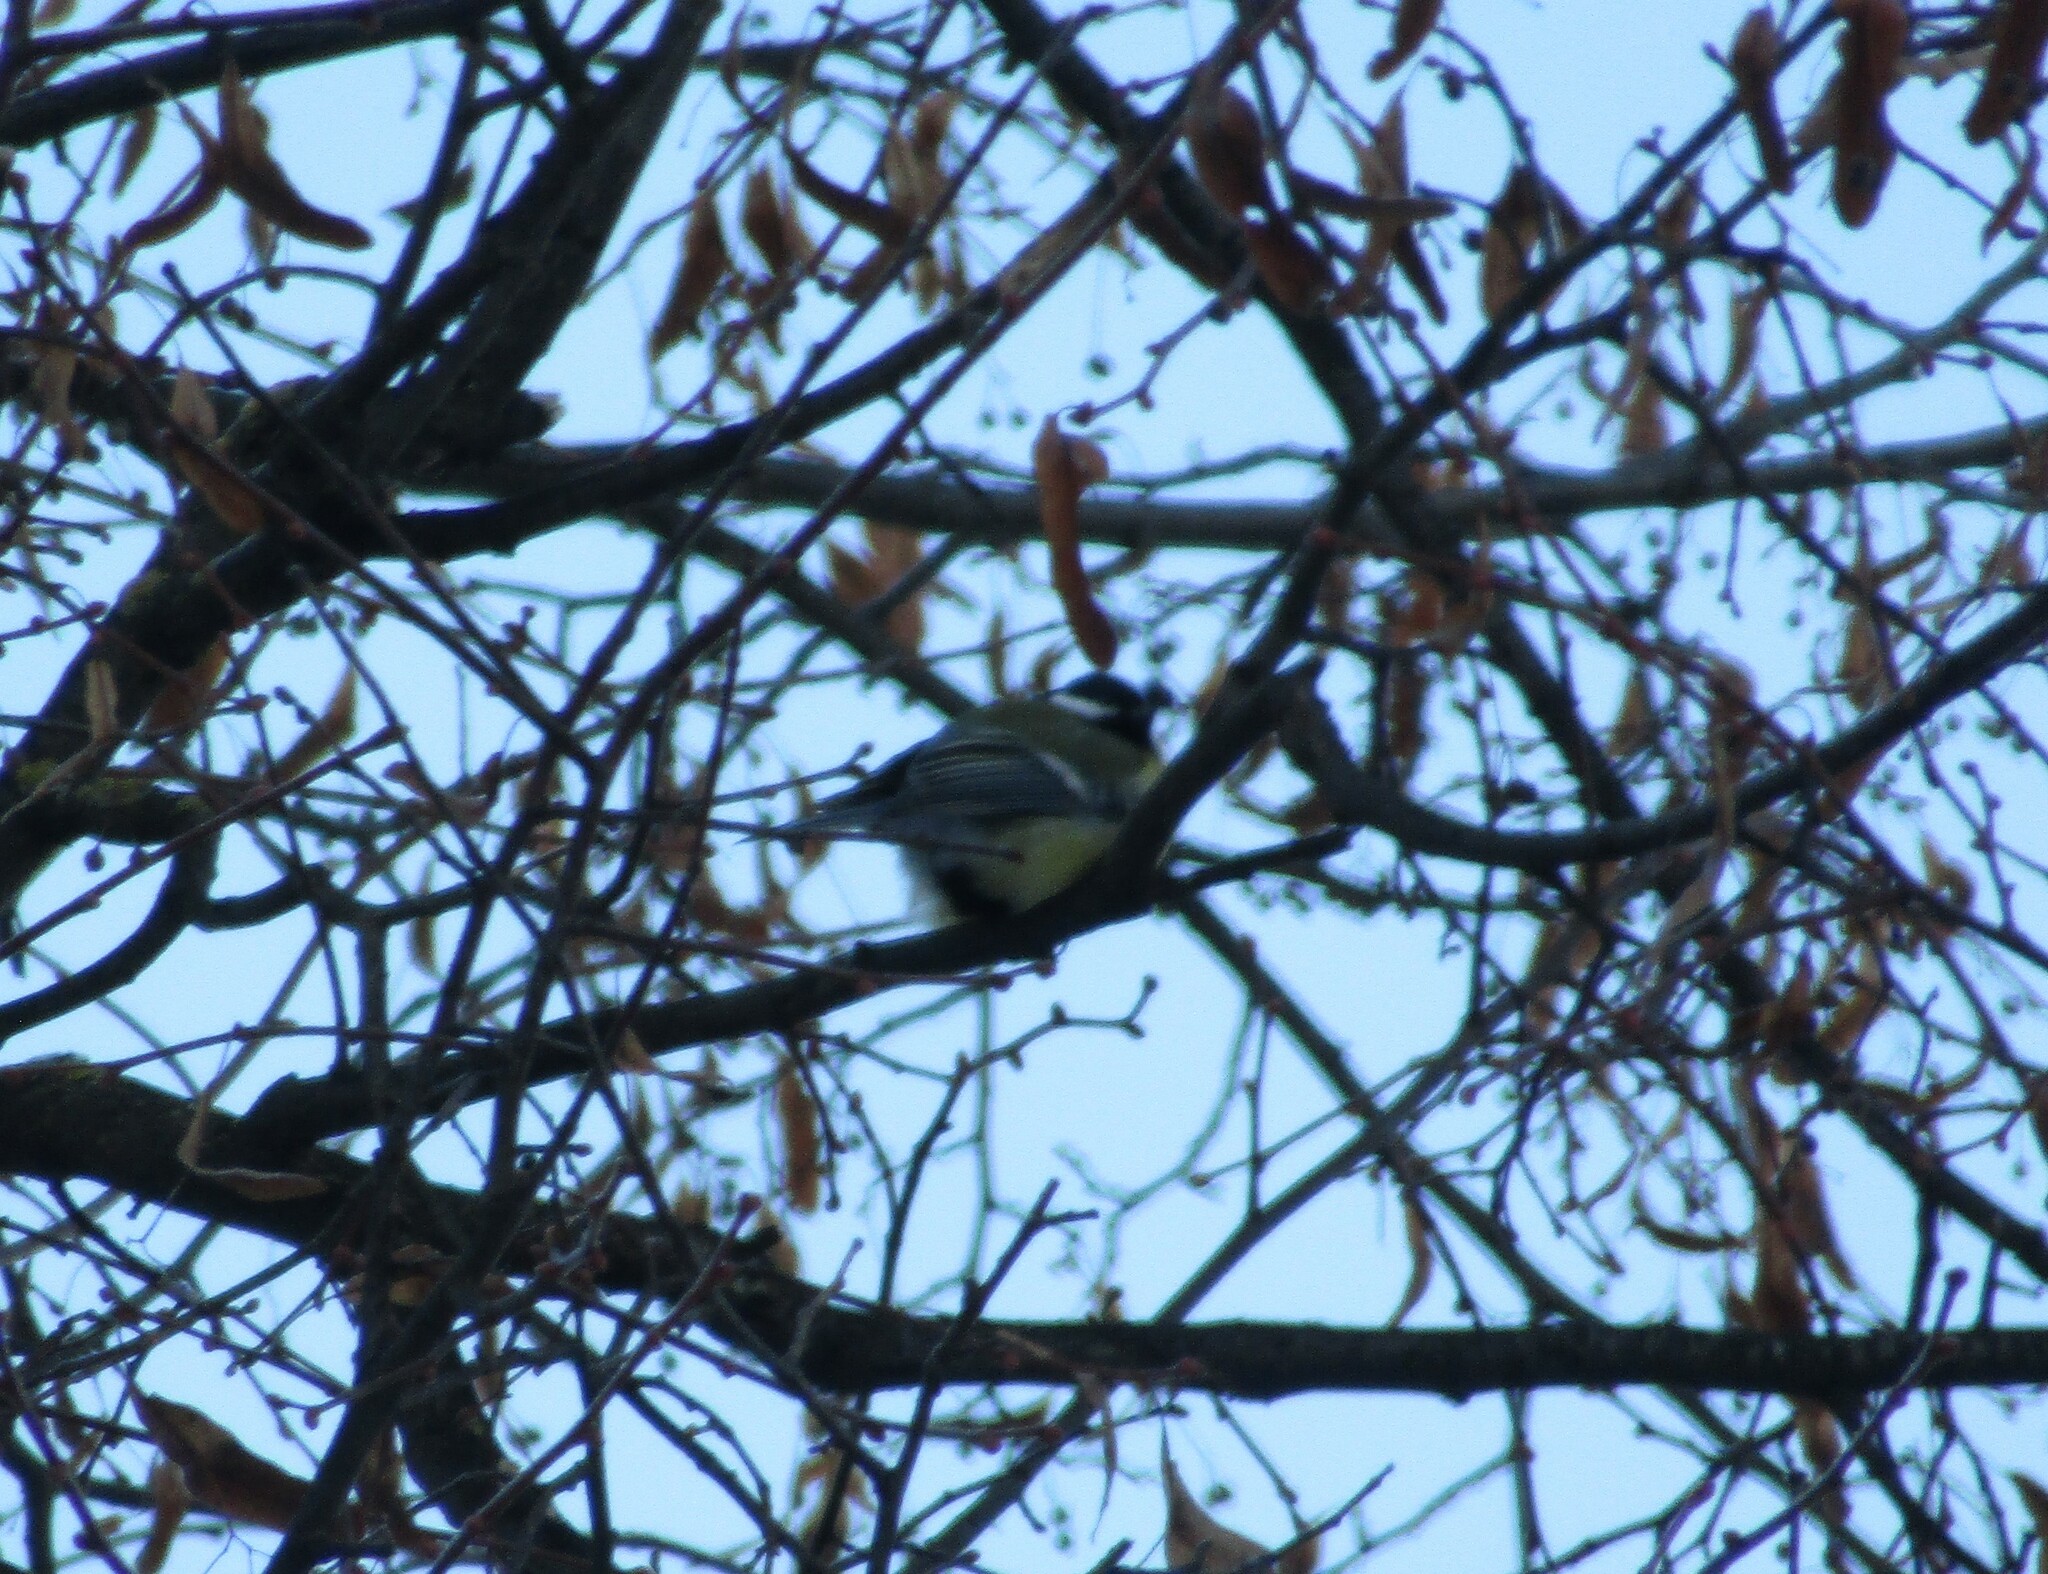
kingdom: Animalia
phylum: Chordata
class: Aves
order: Passeriformes
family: Paridae
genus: Parus
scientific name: Parus major
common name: Great tit
